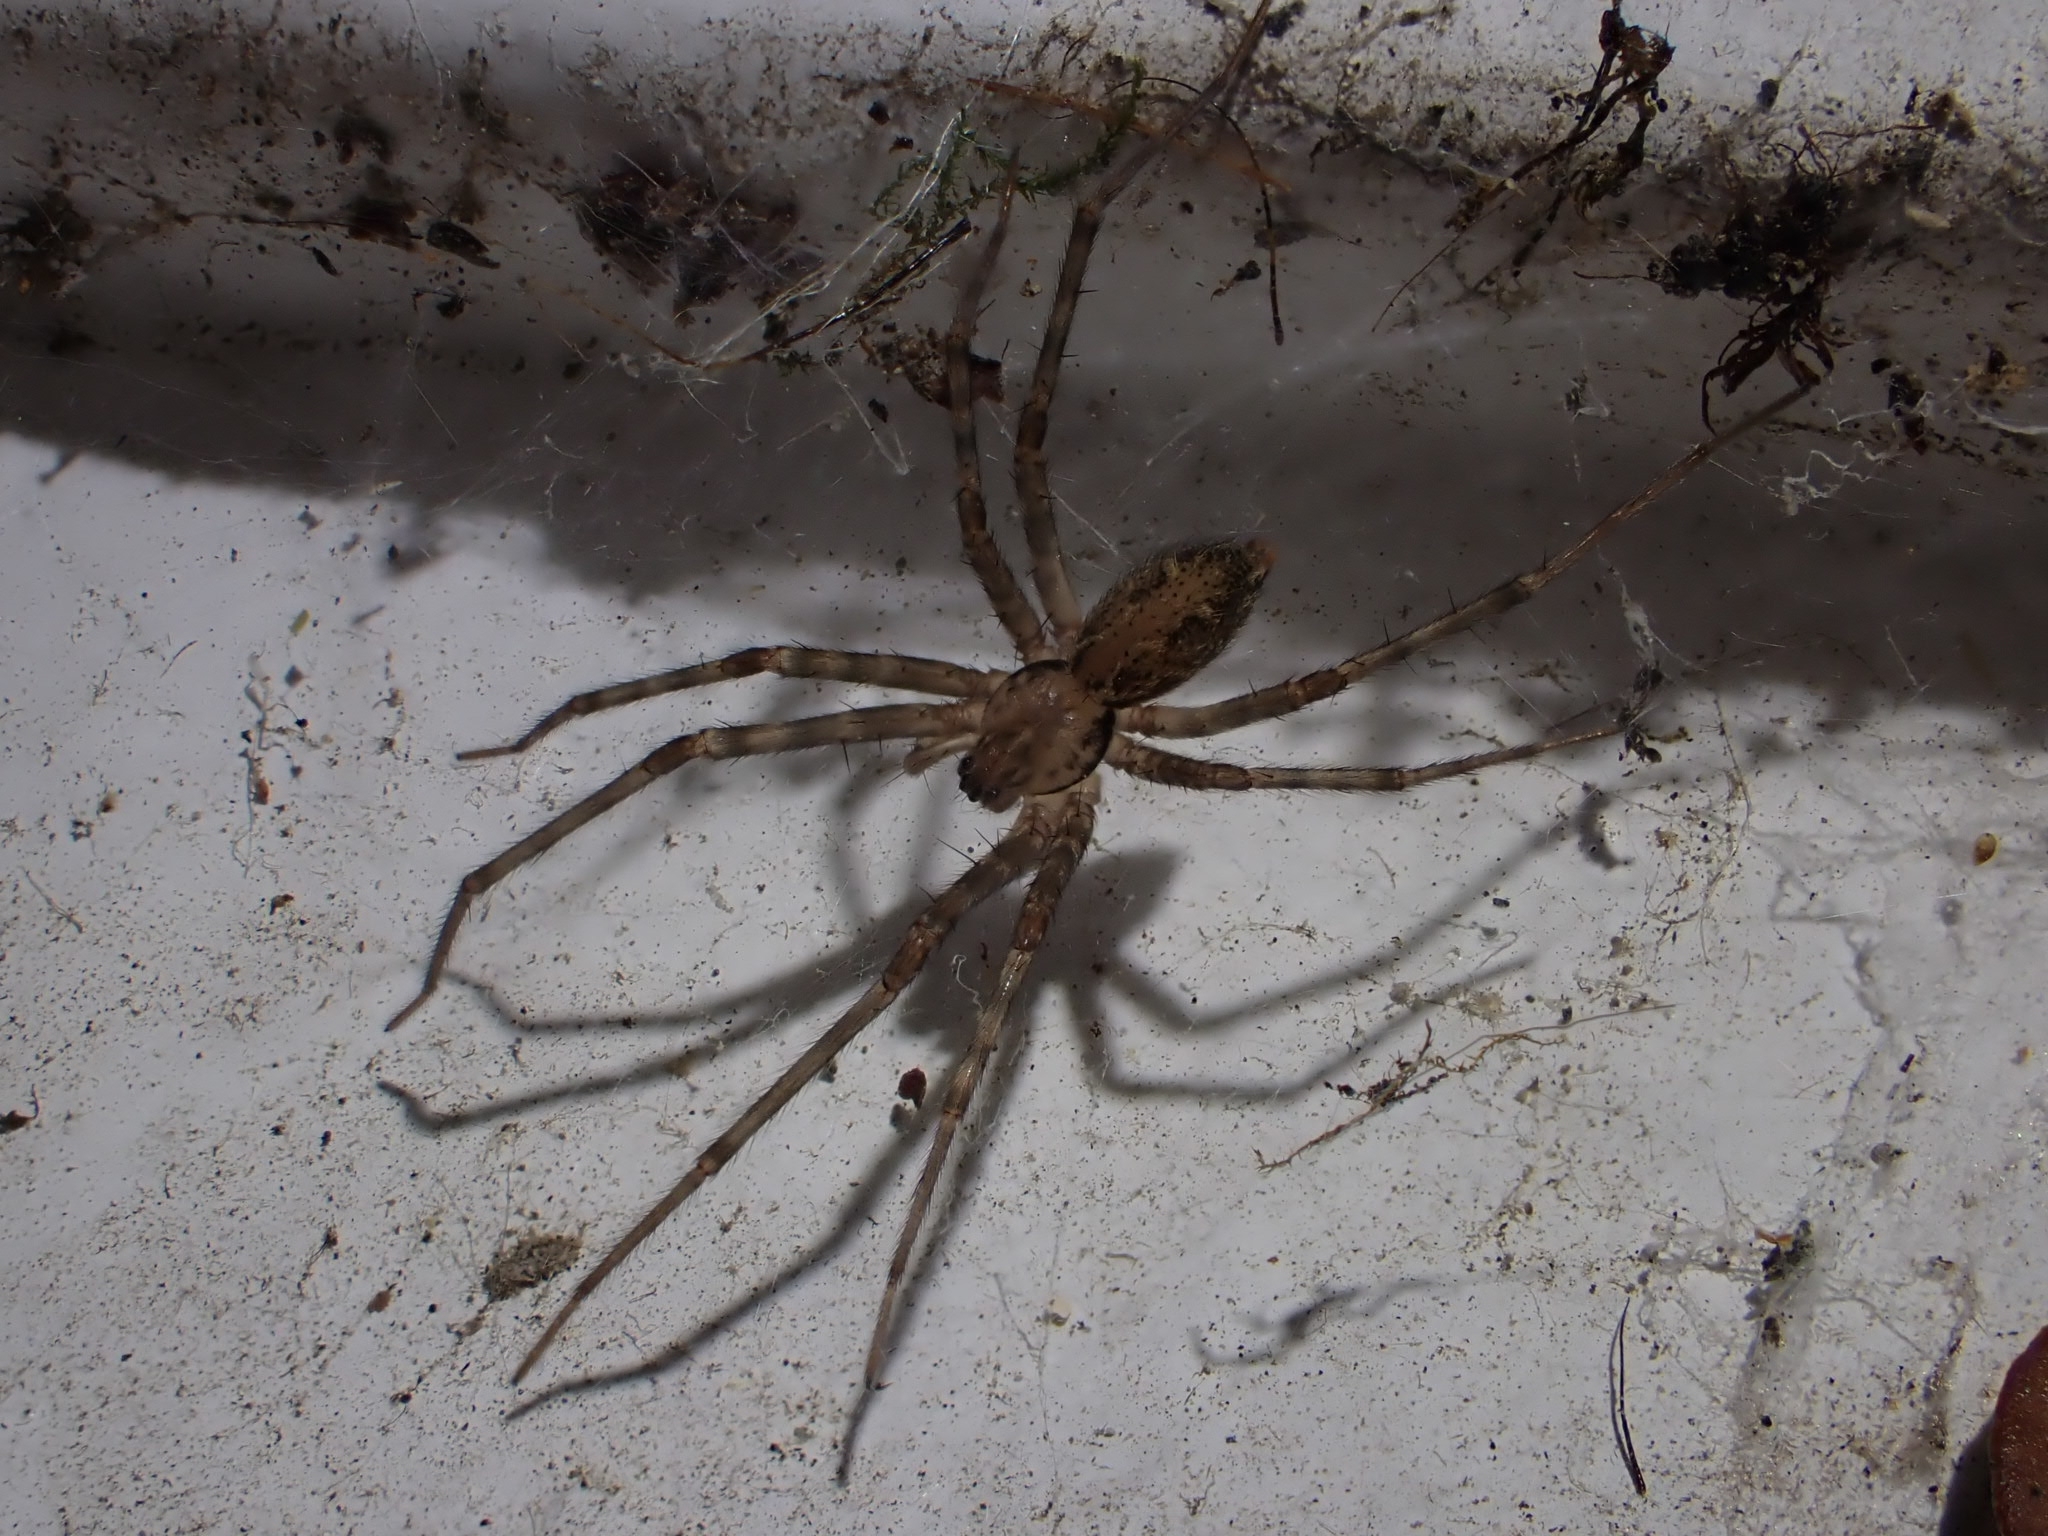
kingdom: Animalia
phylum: Arthropoda
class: Arachnida
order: Araneae
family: Stiphidiidae
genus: Stiphidion
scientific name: Stiphidion facetum
